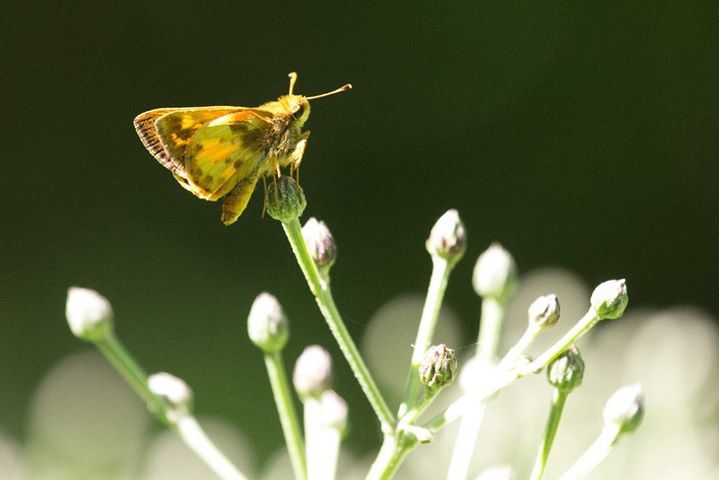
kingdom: Animalia
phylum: Arthropoda
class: Insecta
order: Lepidoptera
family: Hesperiidae
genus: Lon
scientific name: Lon zabulon
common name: Zabulon skipper
